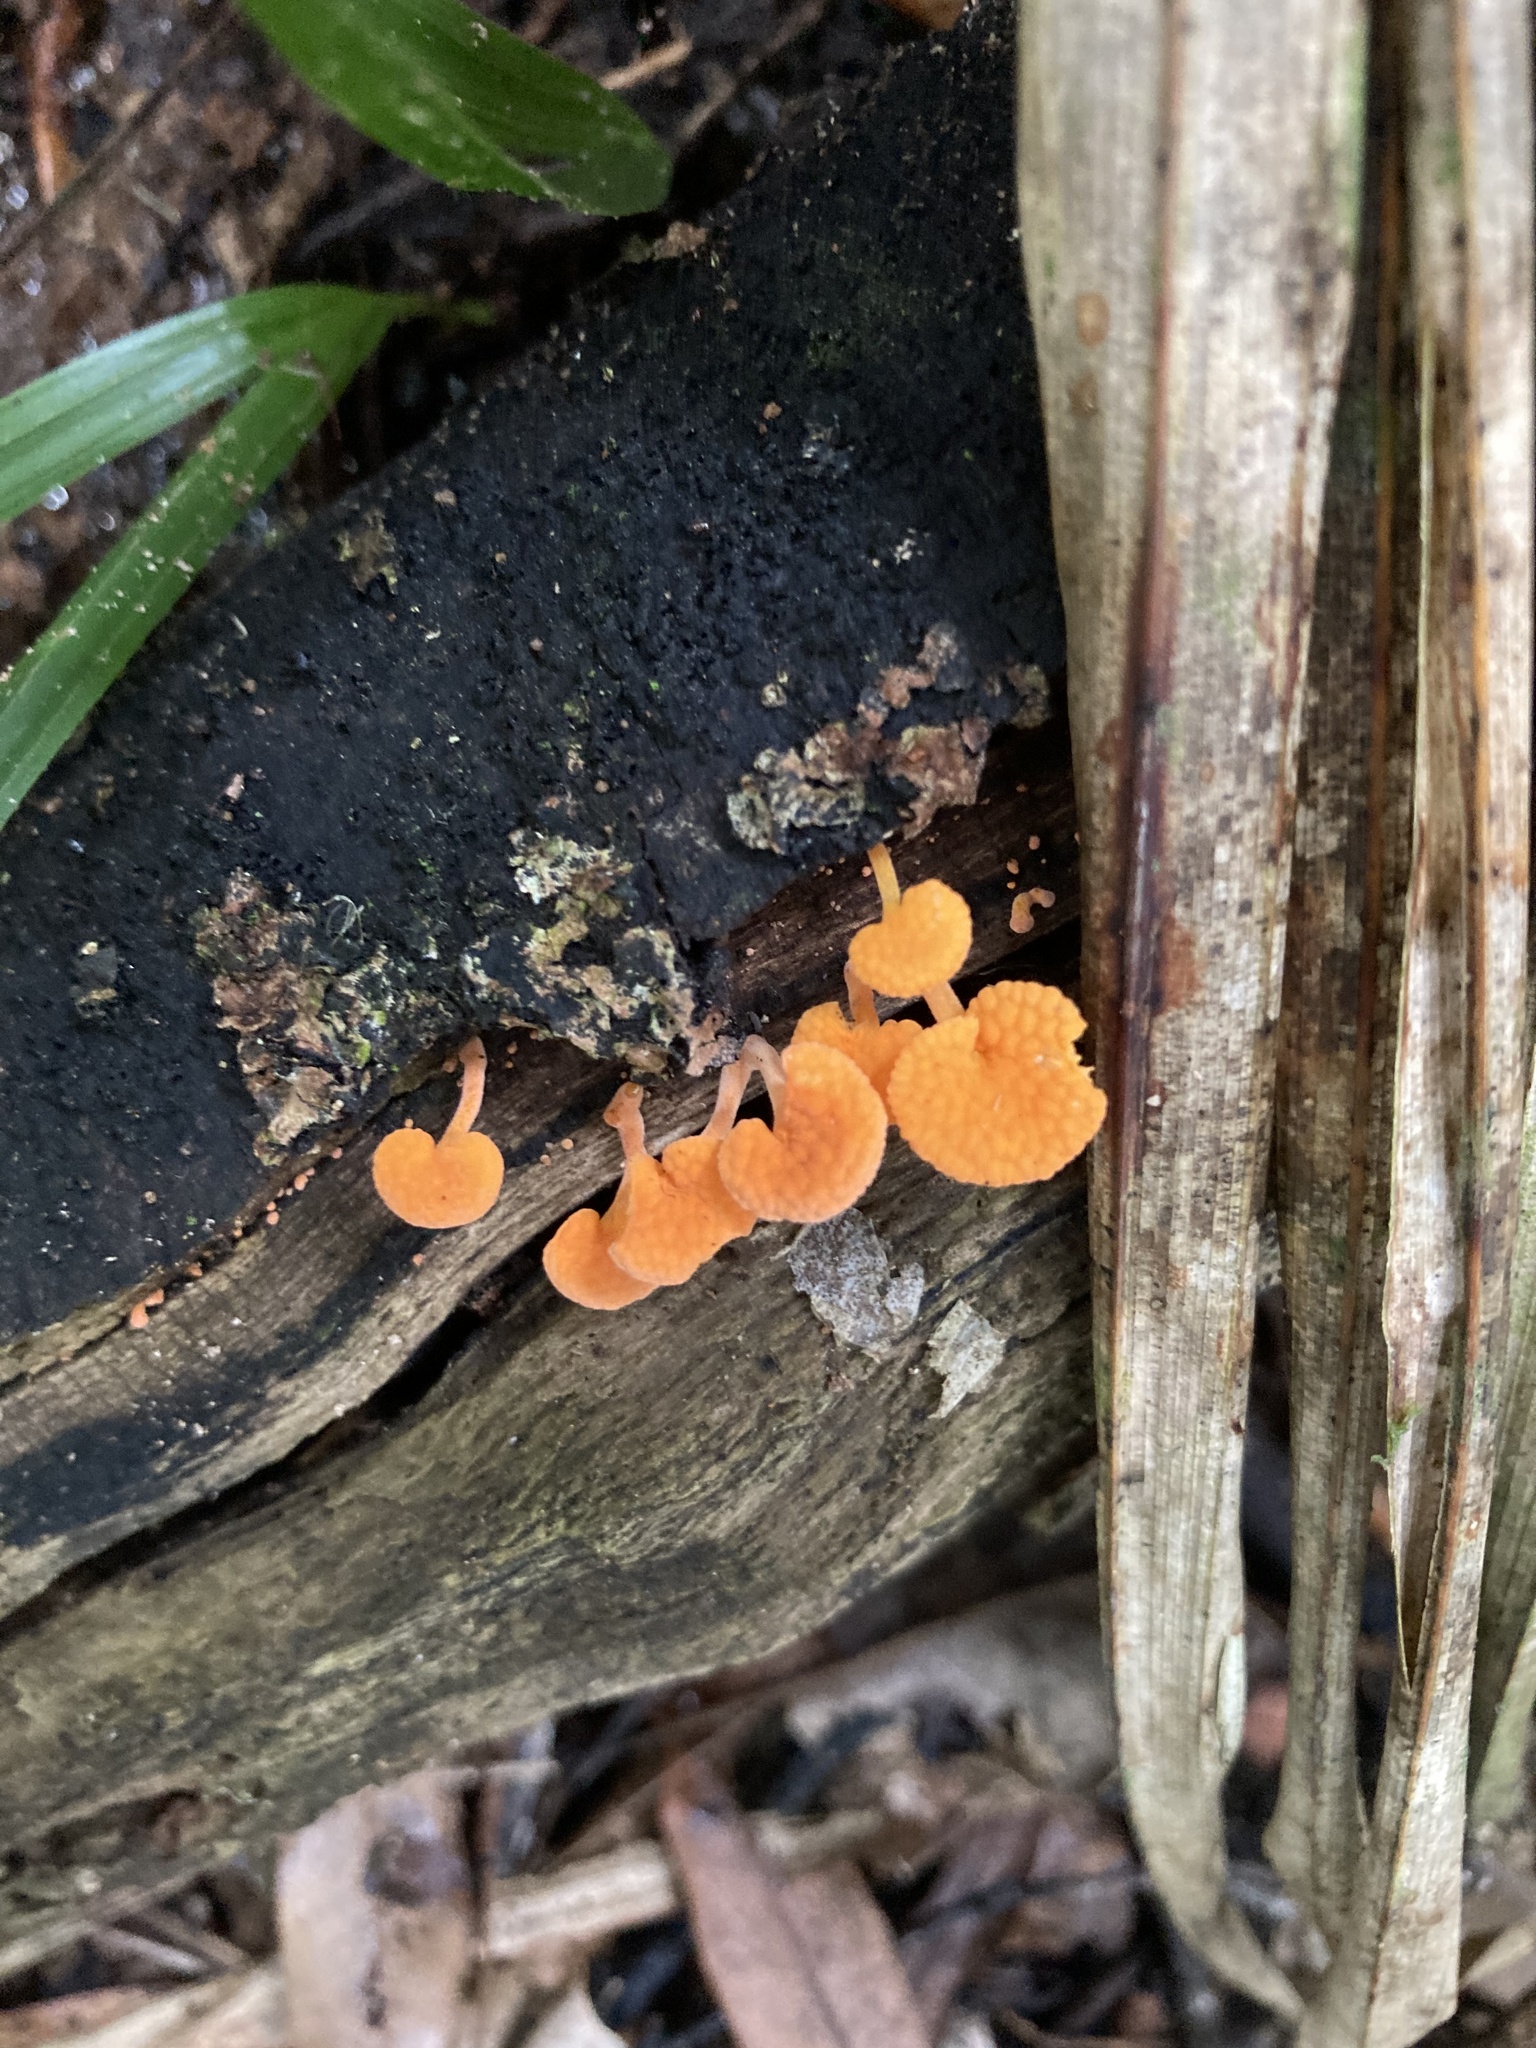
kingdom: Fungi
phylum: Basidiomycota
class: Agaricomycetes
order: Agaricales
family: Mycenaceae
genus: Favolaschia
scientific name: Favolaschia claudopus
